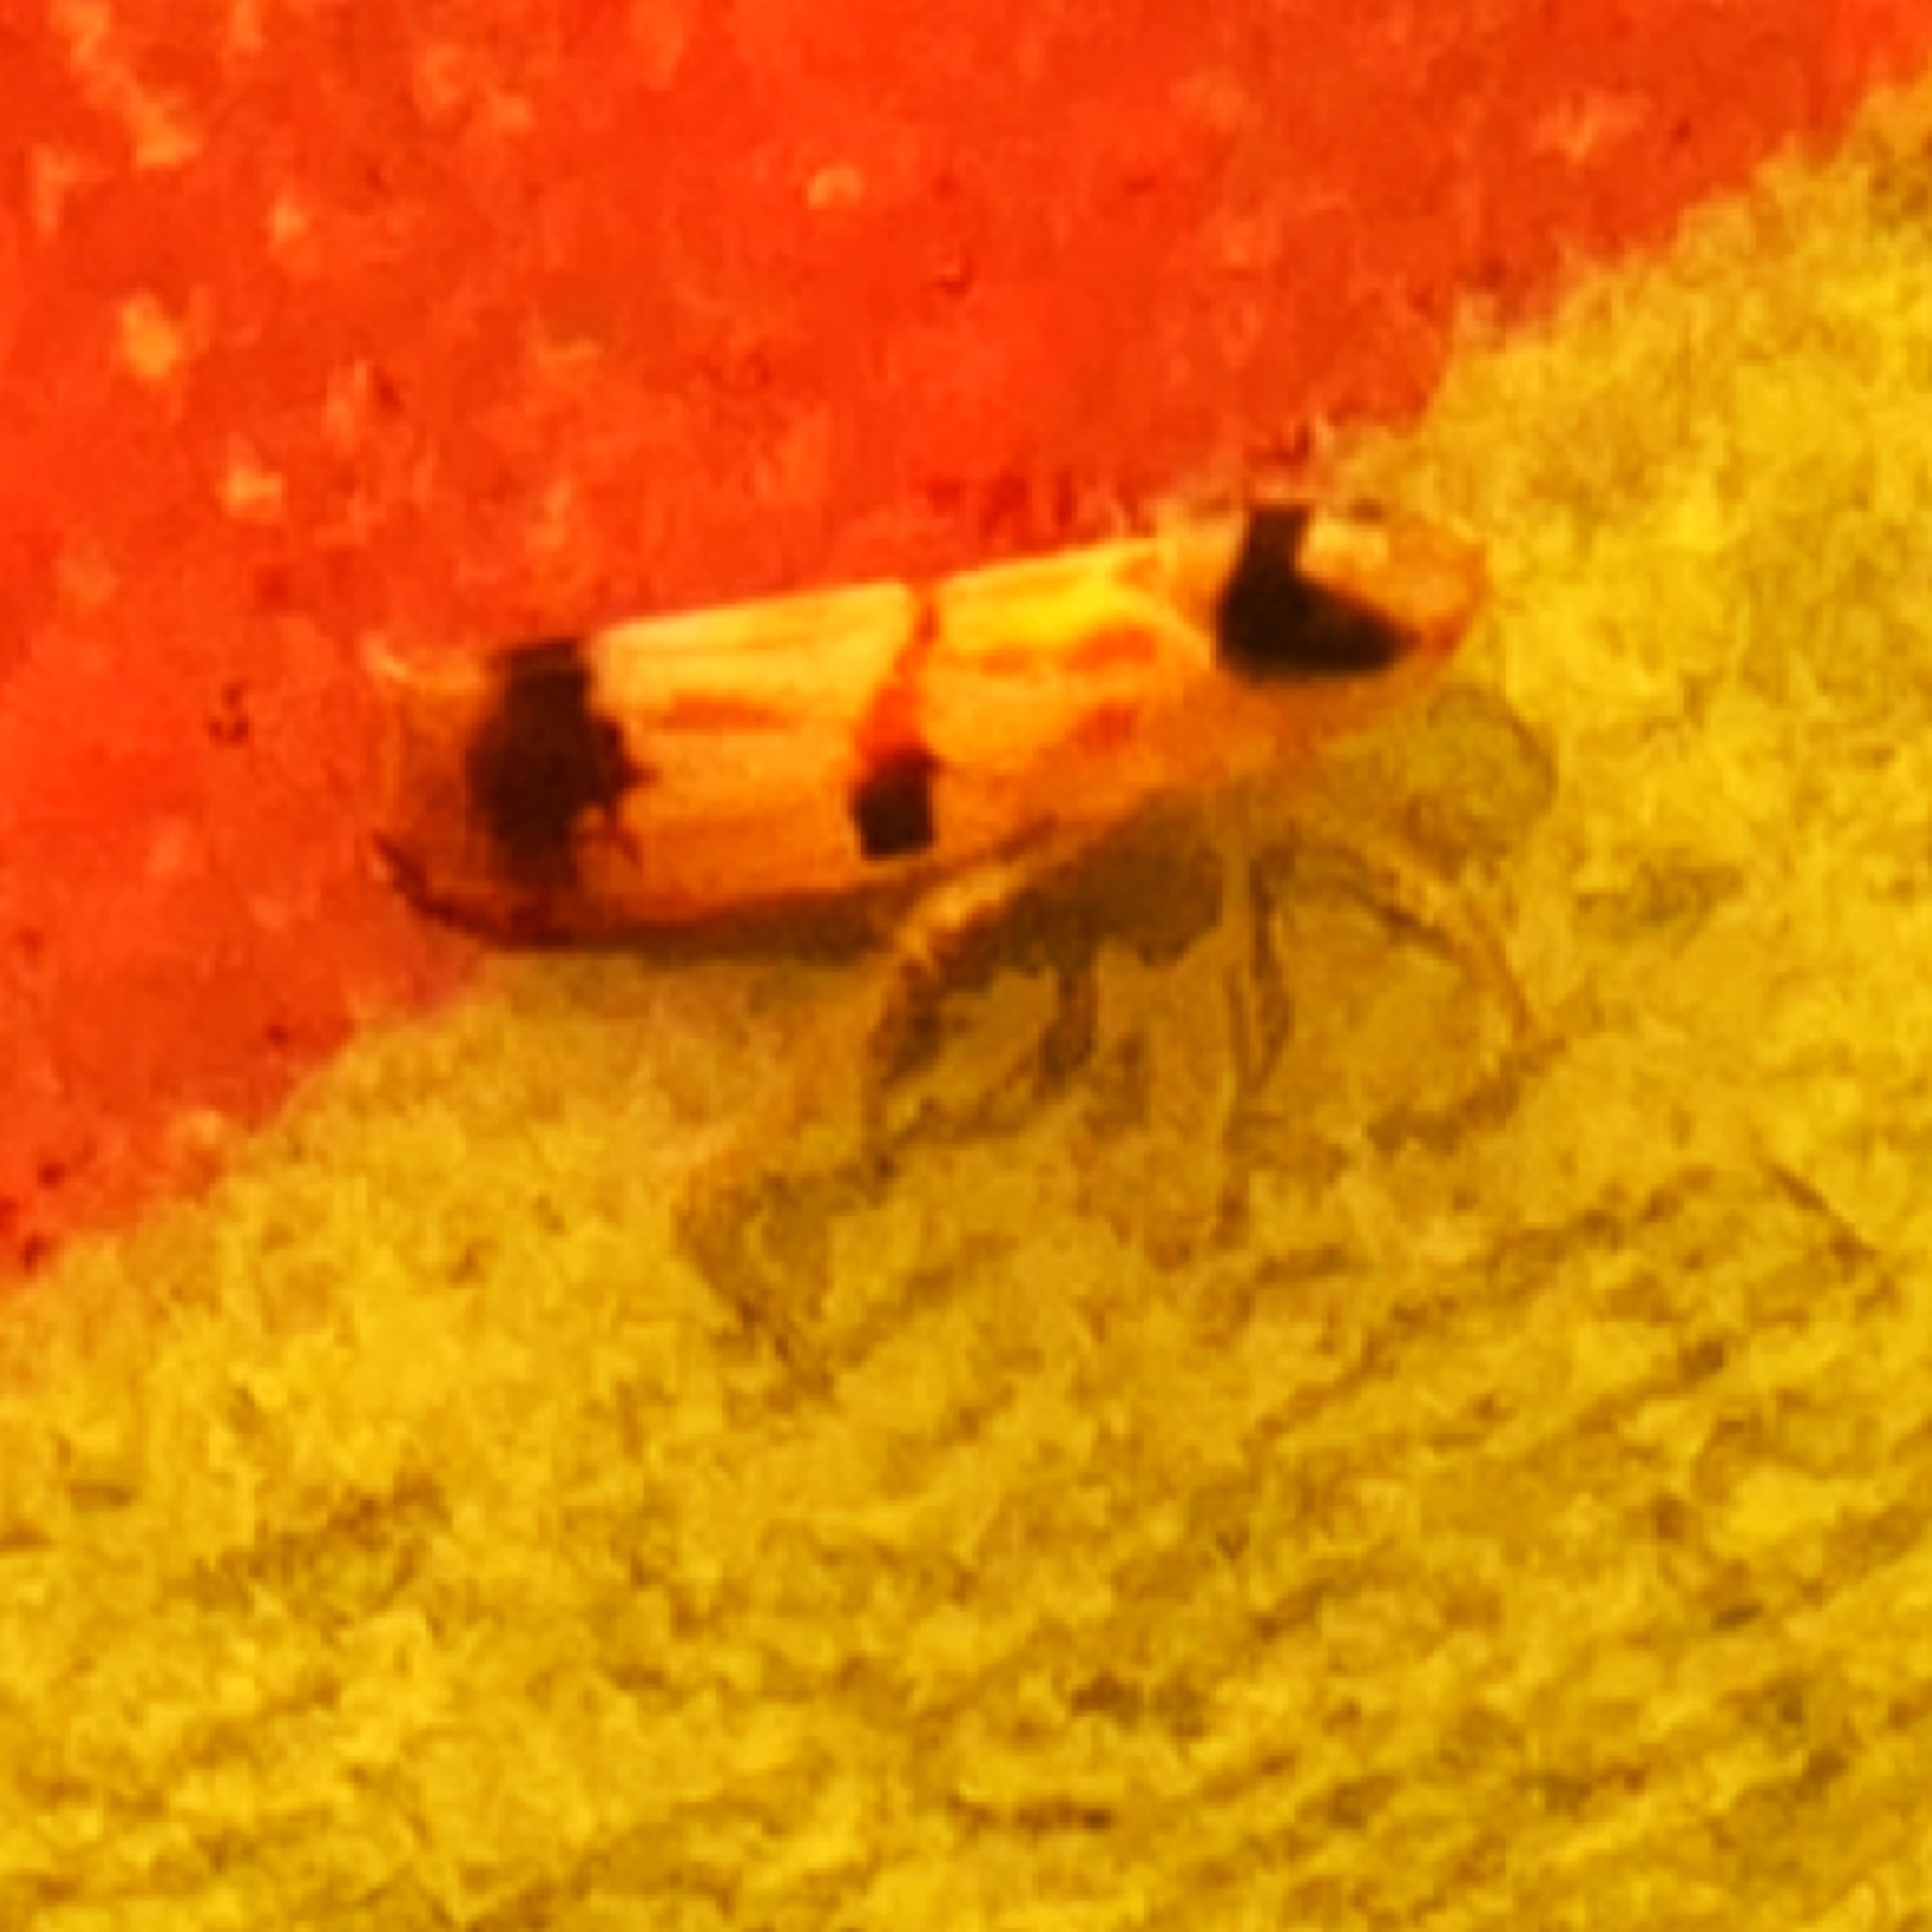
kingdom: Animalia
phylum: Arthropoda
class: Insecta
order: Hemiptera
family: Cicadellidae
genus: Erythroneura
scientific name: Erythroneura cymbium
